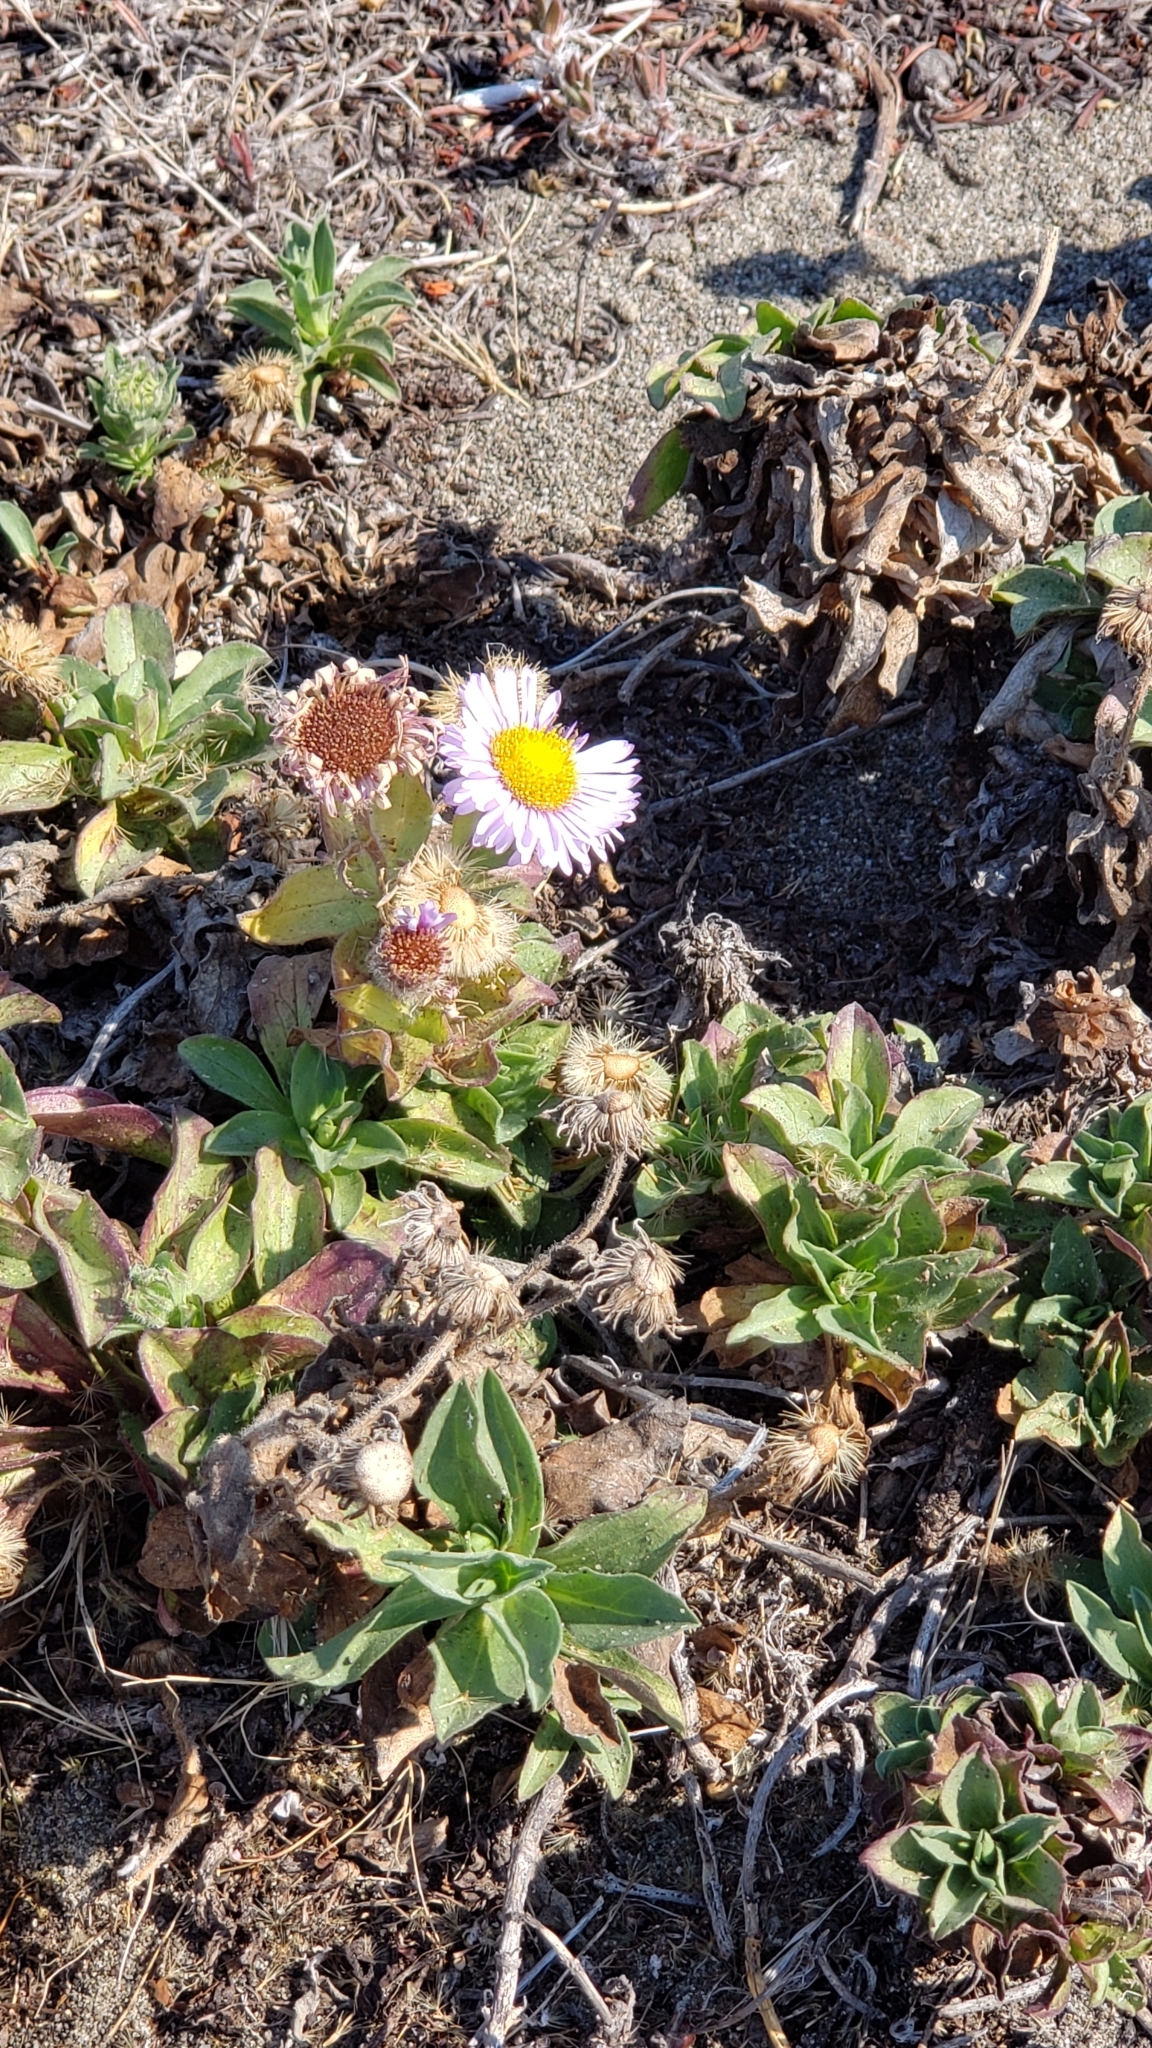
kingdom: Plantae
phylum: Tracheophyta
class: Magnoliopsida
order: Asterales
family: Asteraceae
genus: Erigeron
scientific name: Erigeron glaucus
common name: Seaside daisy
